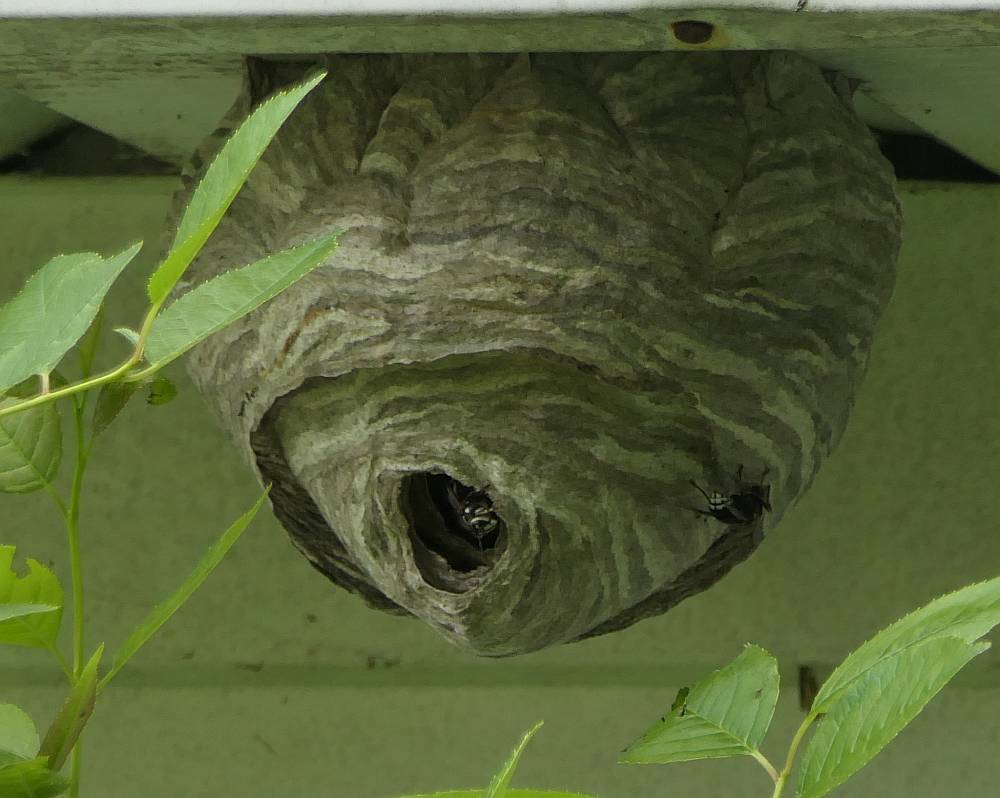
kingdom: Animalia
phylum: Arthropoda
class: Insecta
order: Hymenoptera
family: Vespidae
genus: Dolichovespula
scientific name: Dolichovespula maculata
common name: Bald-faced hornet
